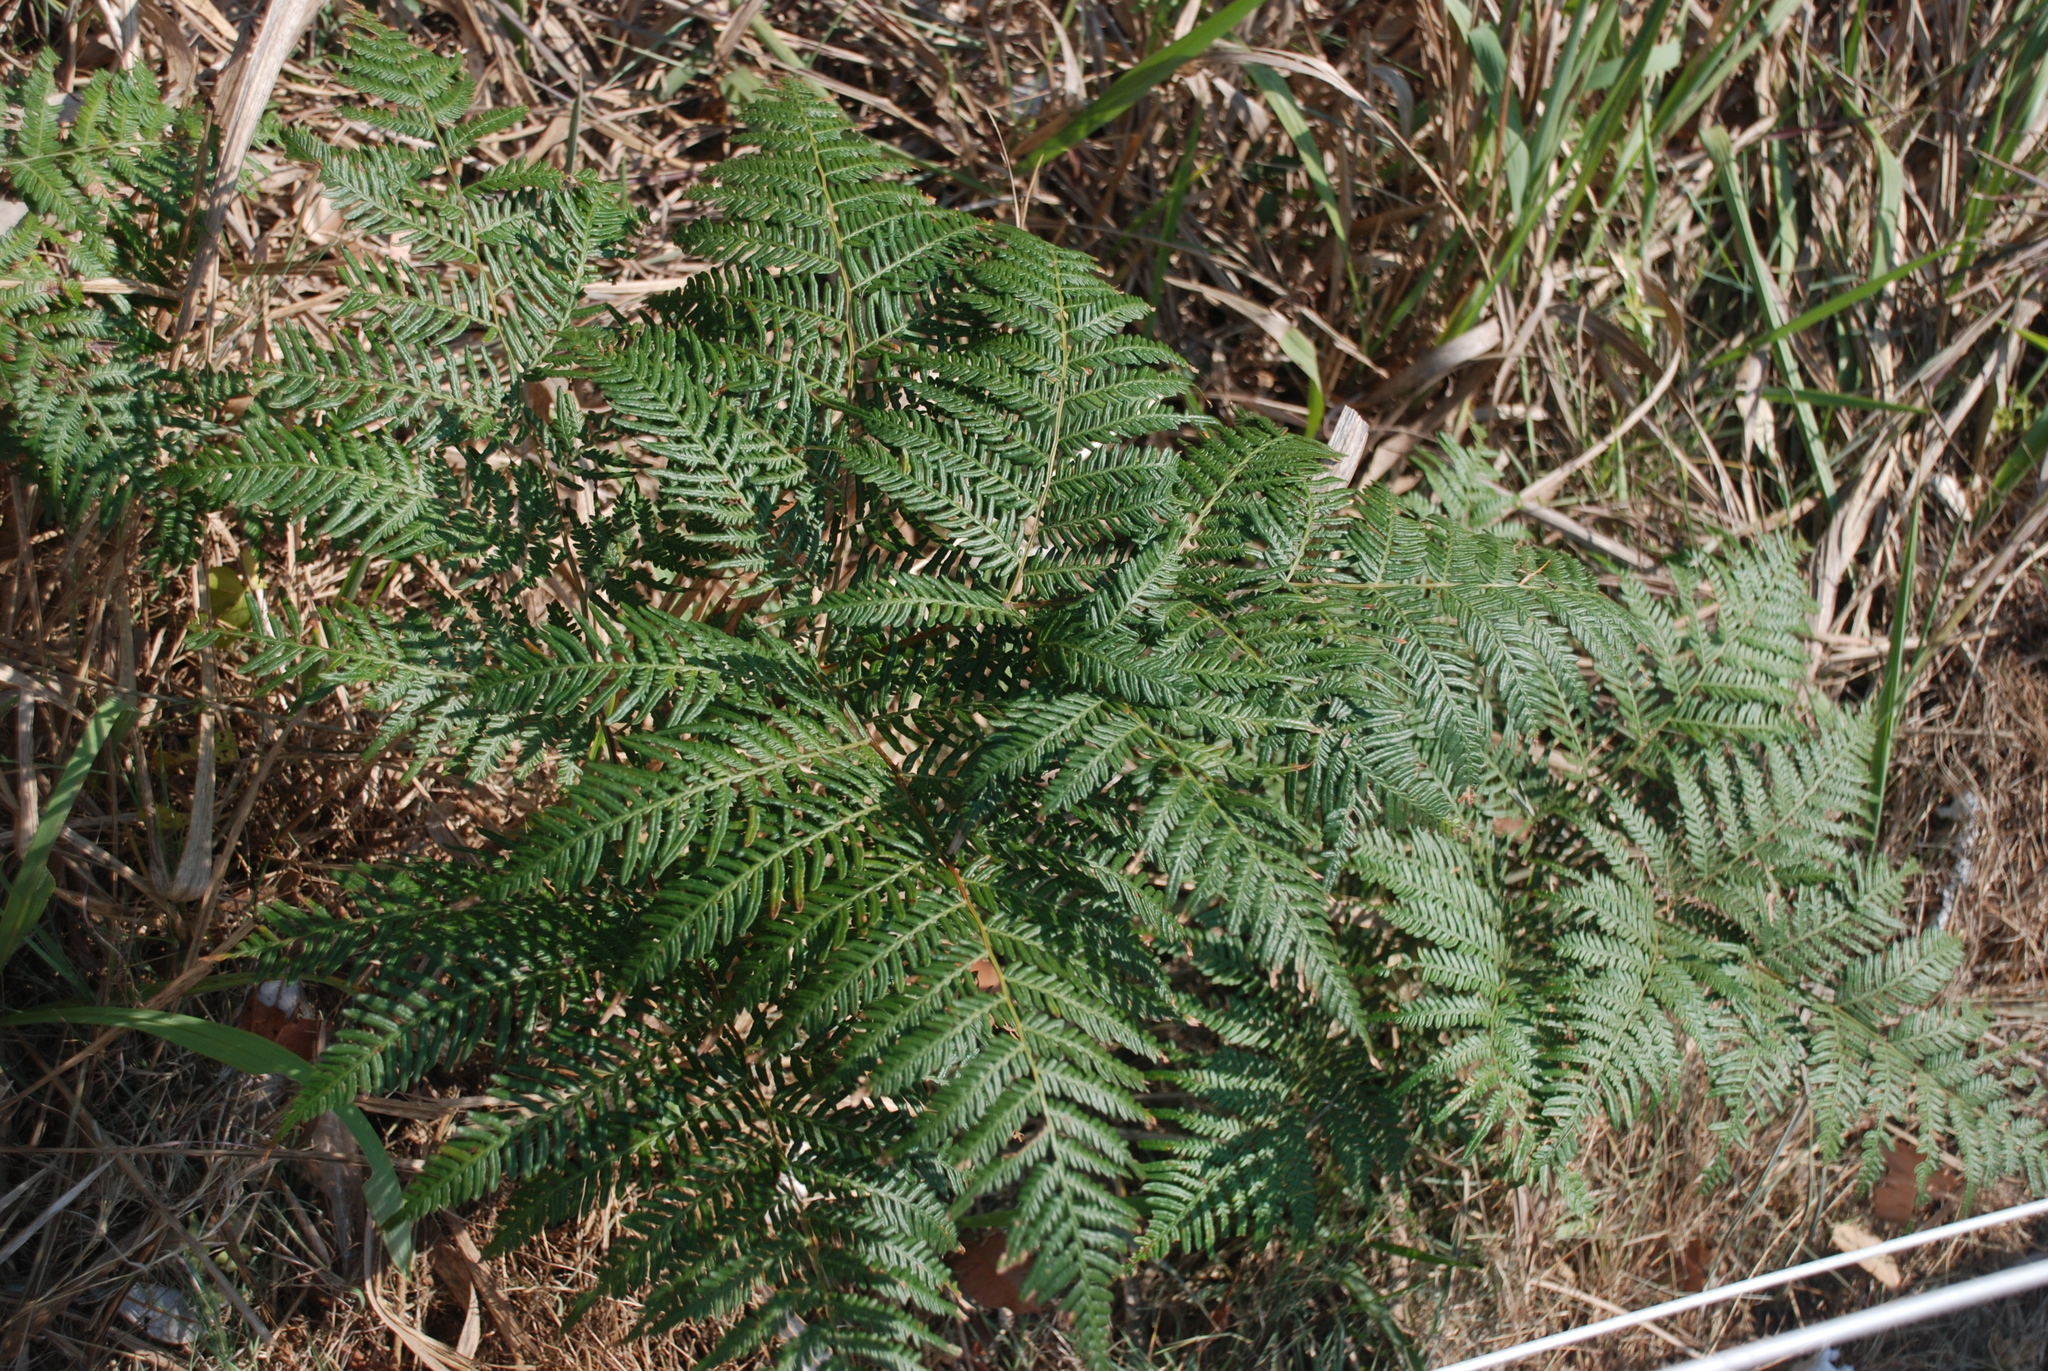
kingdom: Plantae
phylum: Tracheophyta
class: Polypodiopsida
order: Polypodiales
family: Dennstaedtiaceae
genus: Pteridium
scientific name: Pteridium esculentum
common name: Bracken fern
